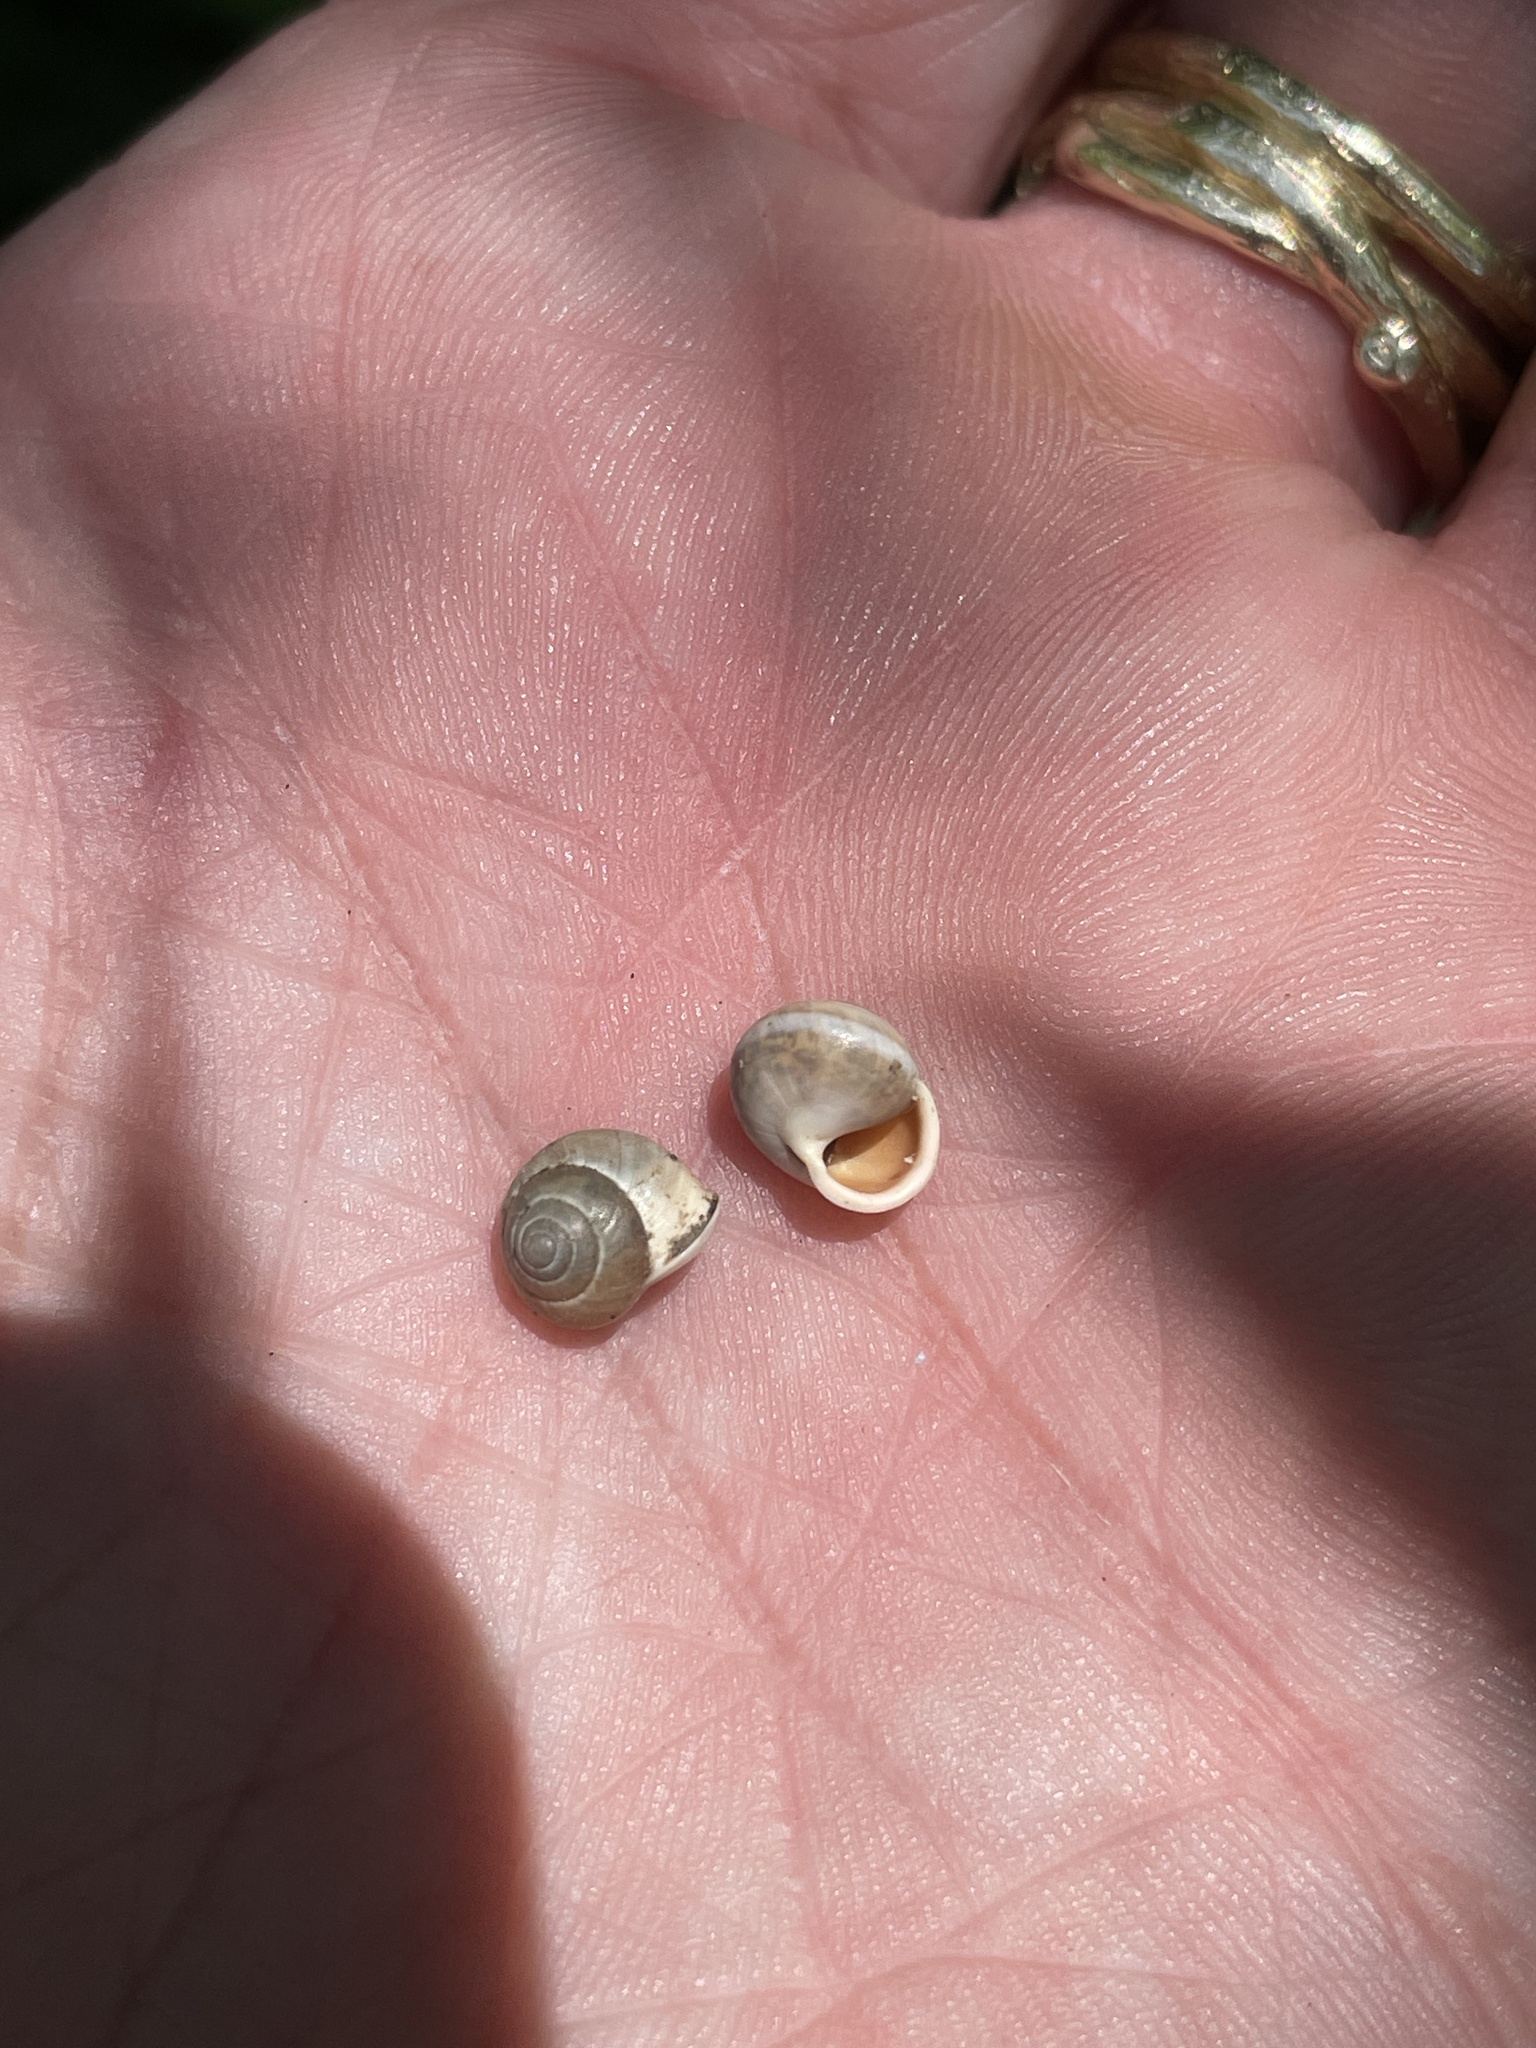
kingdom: Animalia
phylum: Mollusca
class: Gastropoda
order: Cycloneritida
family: Helicinidae
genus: Helicina
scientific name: Helicina orbiculata
